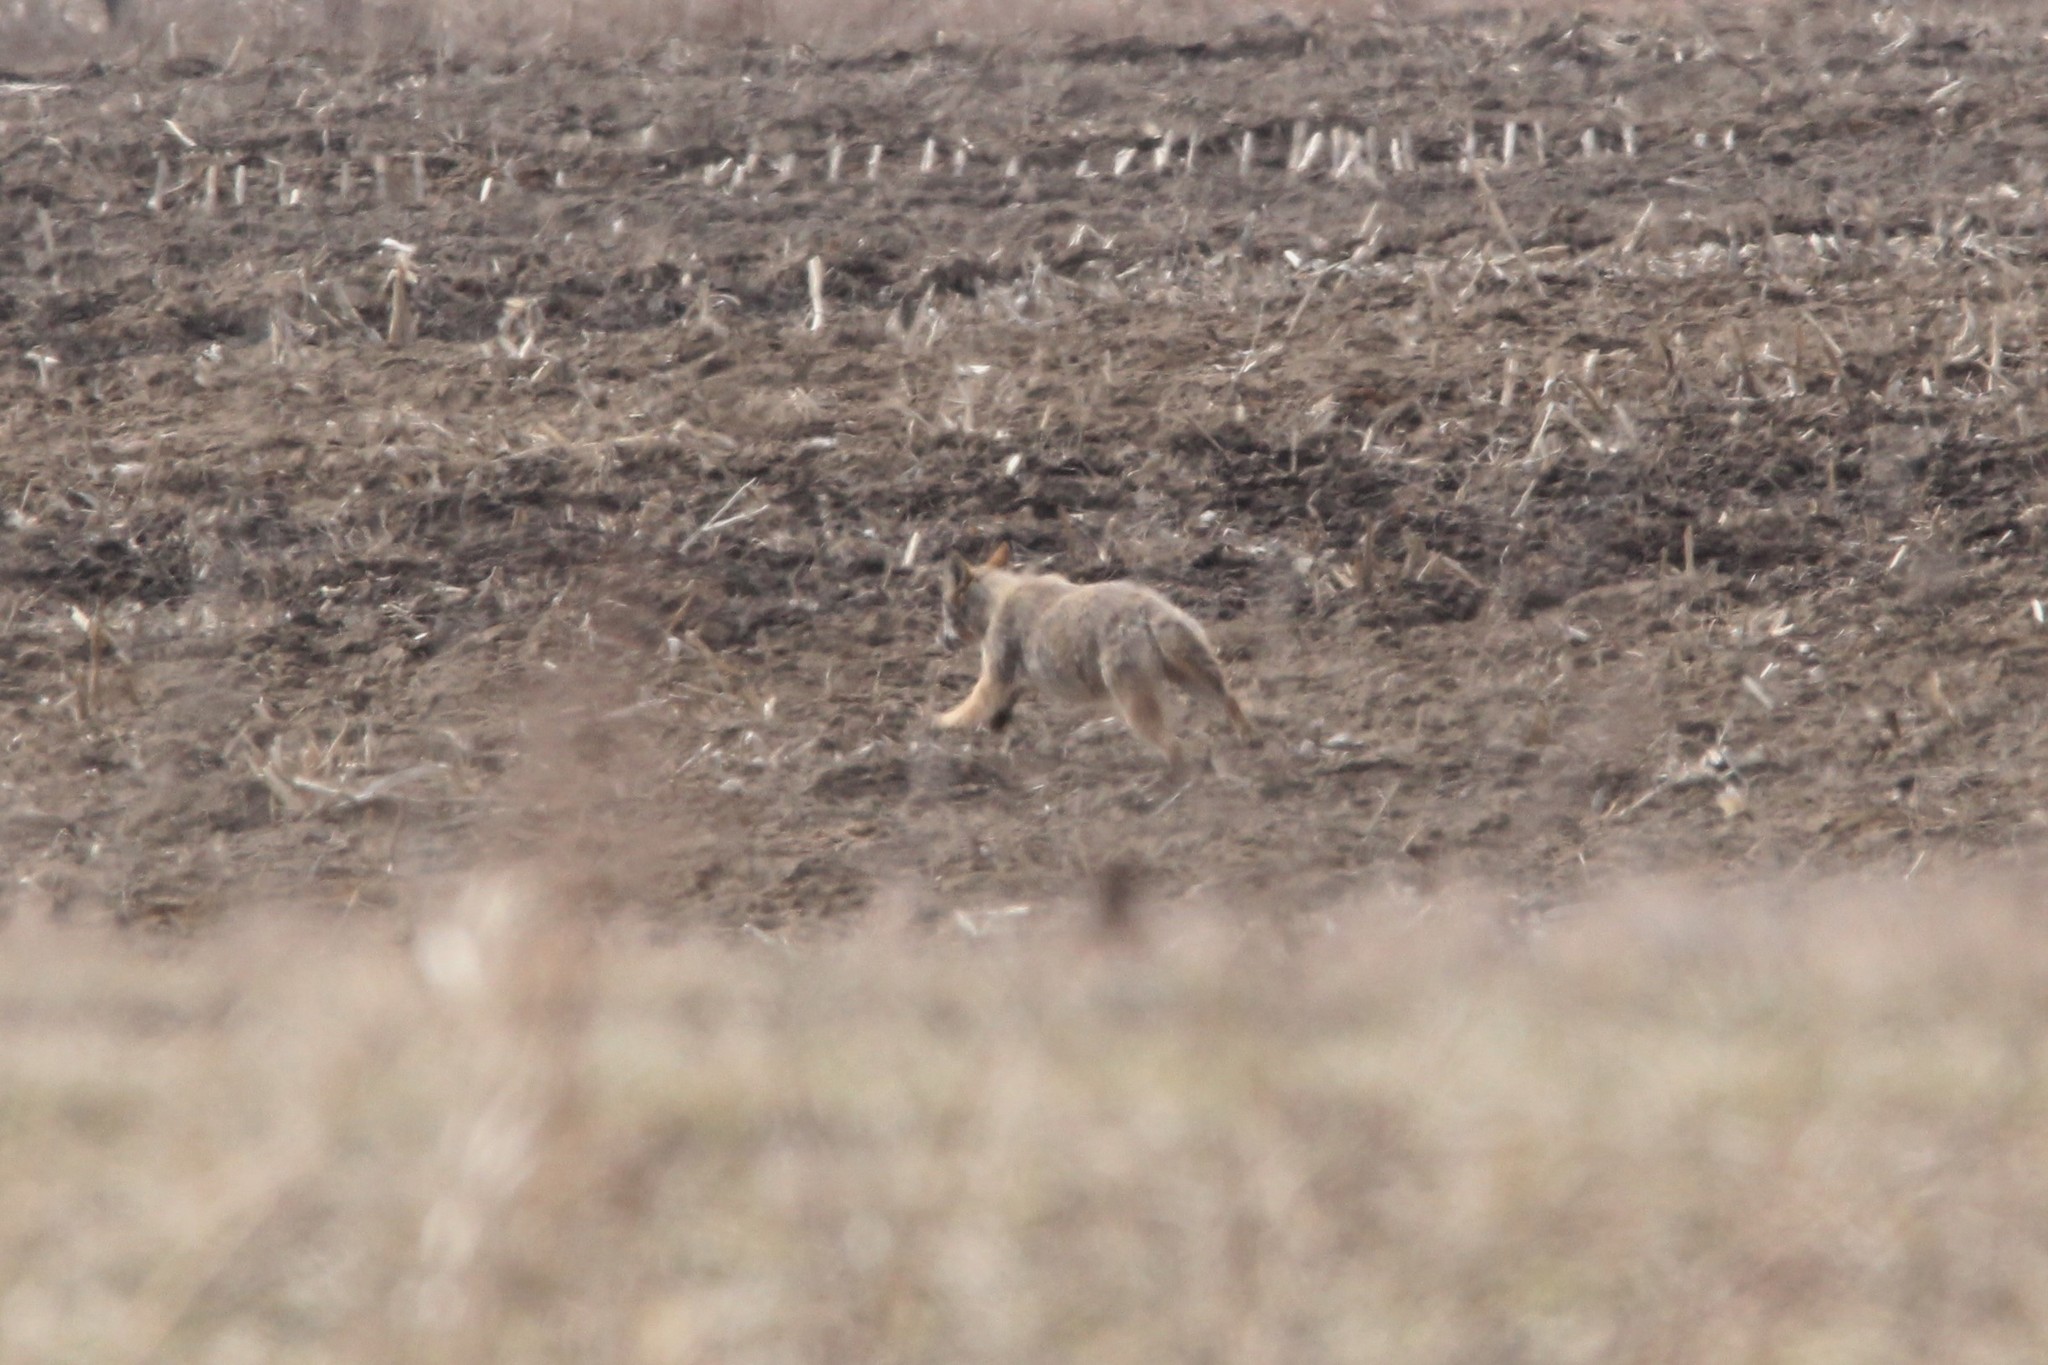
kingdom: Animalia
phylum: Chordata
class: Mammalia
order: Carnivora
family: Canidae
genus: Canis
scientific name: Canis latrans
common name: Coyote
